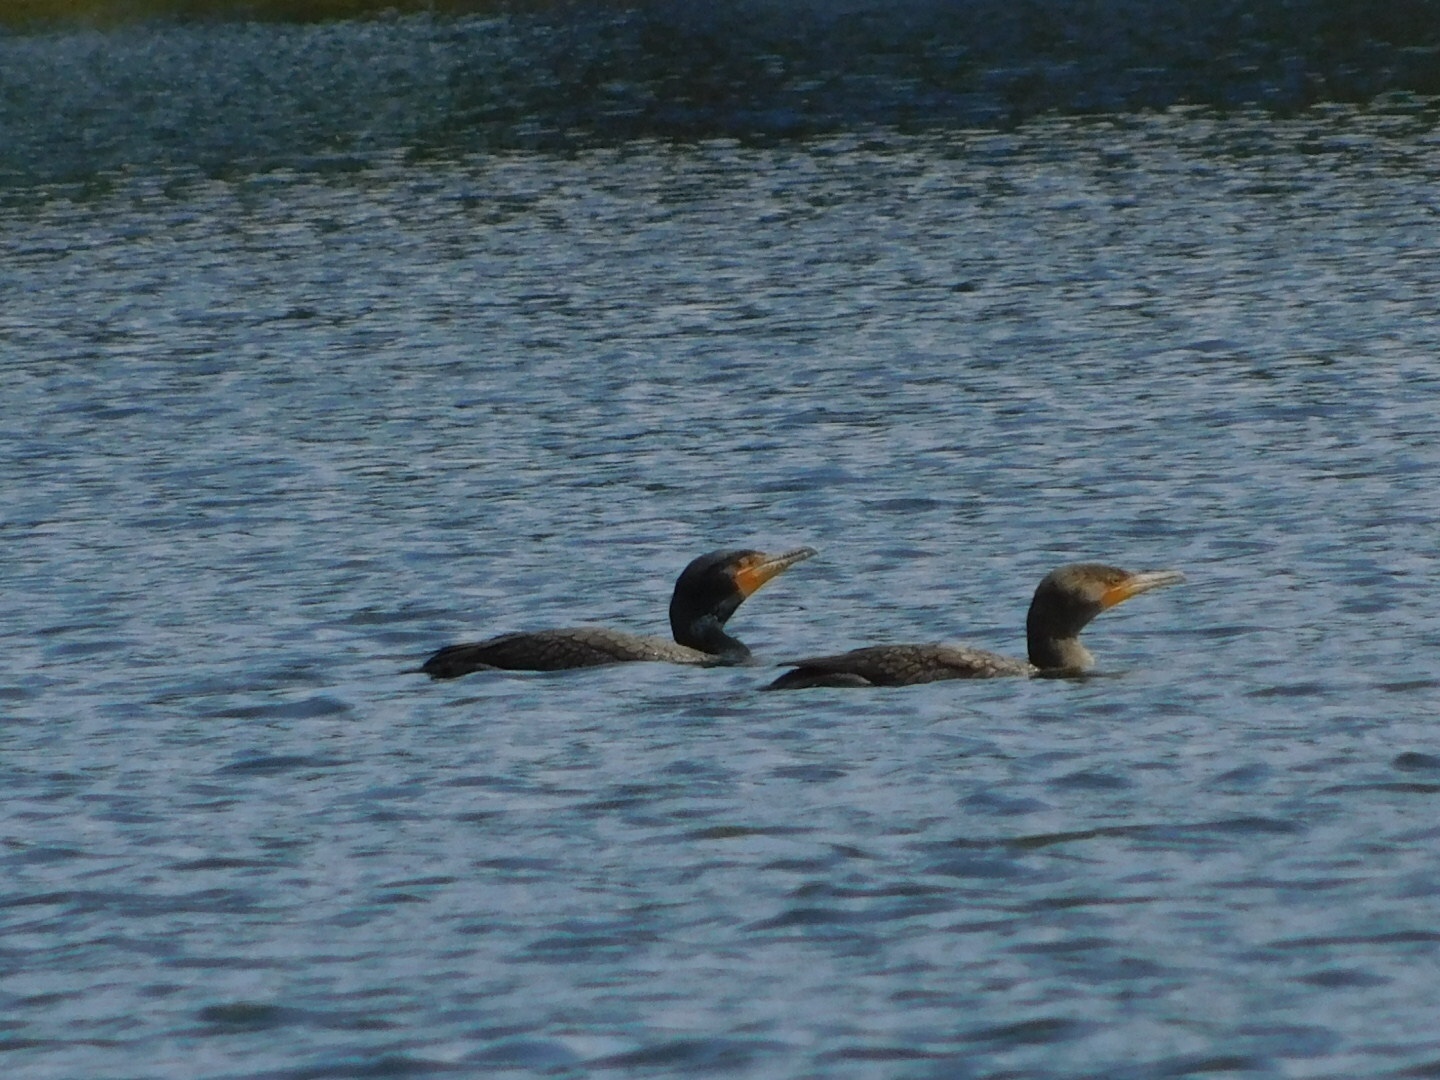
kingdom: Animalia
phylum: Chordata
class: Aves
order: Suliformes
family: Phalacrocoracidae
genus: Phalacrocorax
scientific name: Phalacrocorax auritus
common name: Double-crested cormorant
